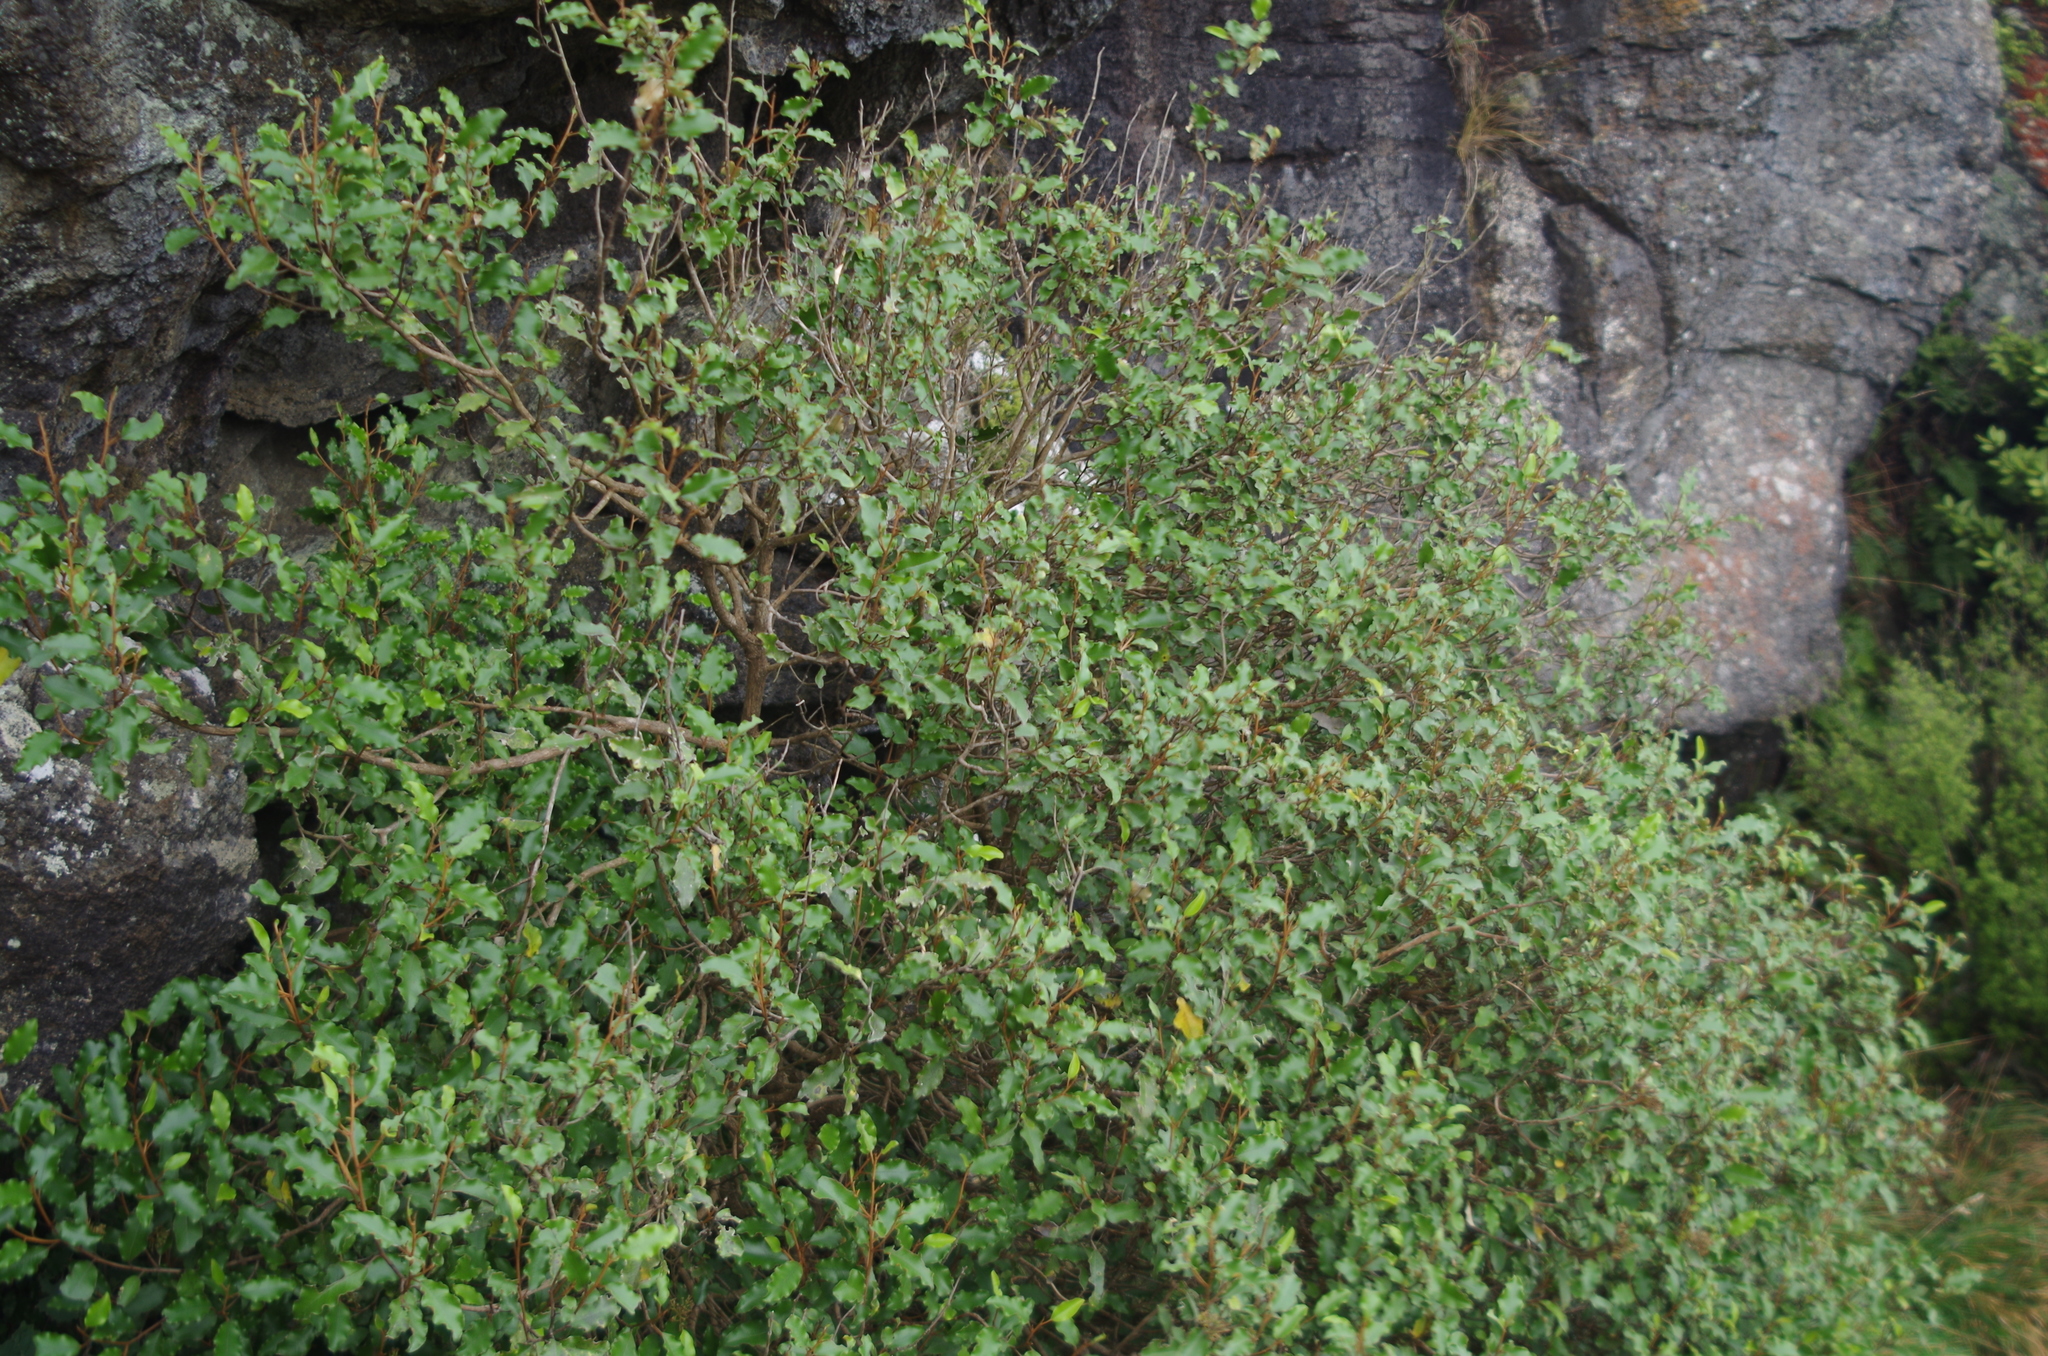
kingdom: Plantae
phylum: Tracheophyta
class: Magnoliopsida
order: Asterales
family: Asteraceae
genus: Olearia
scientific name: Olearia paniculata
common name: Akiraho
